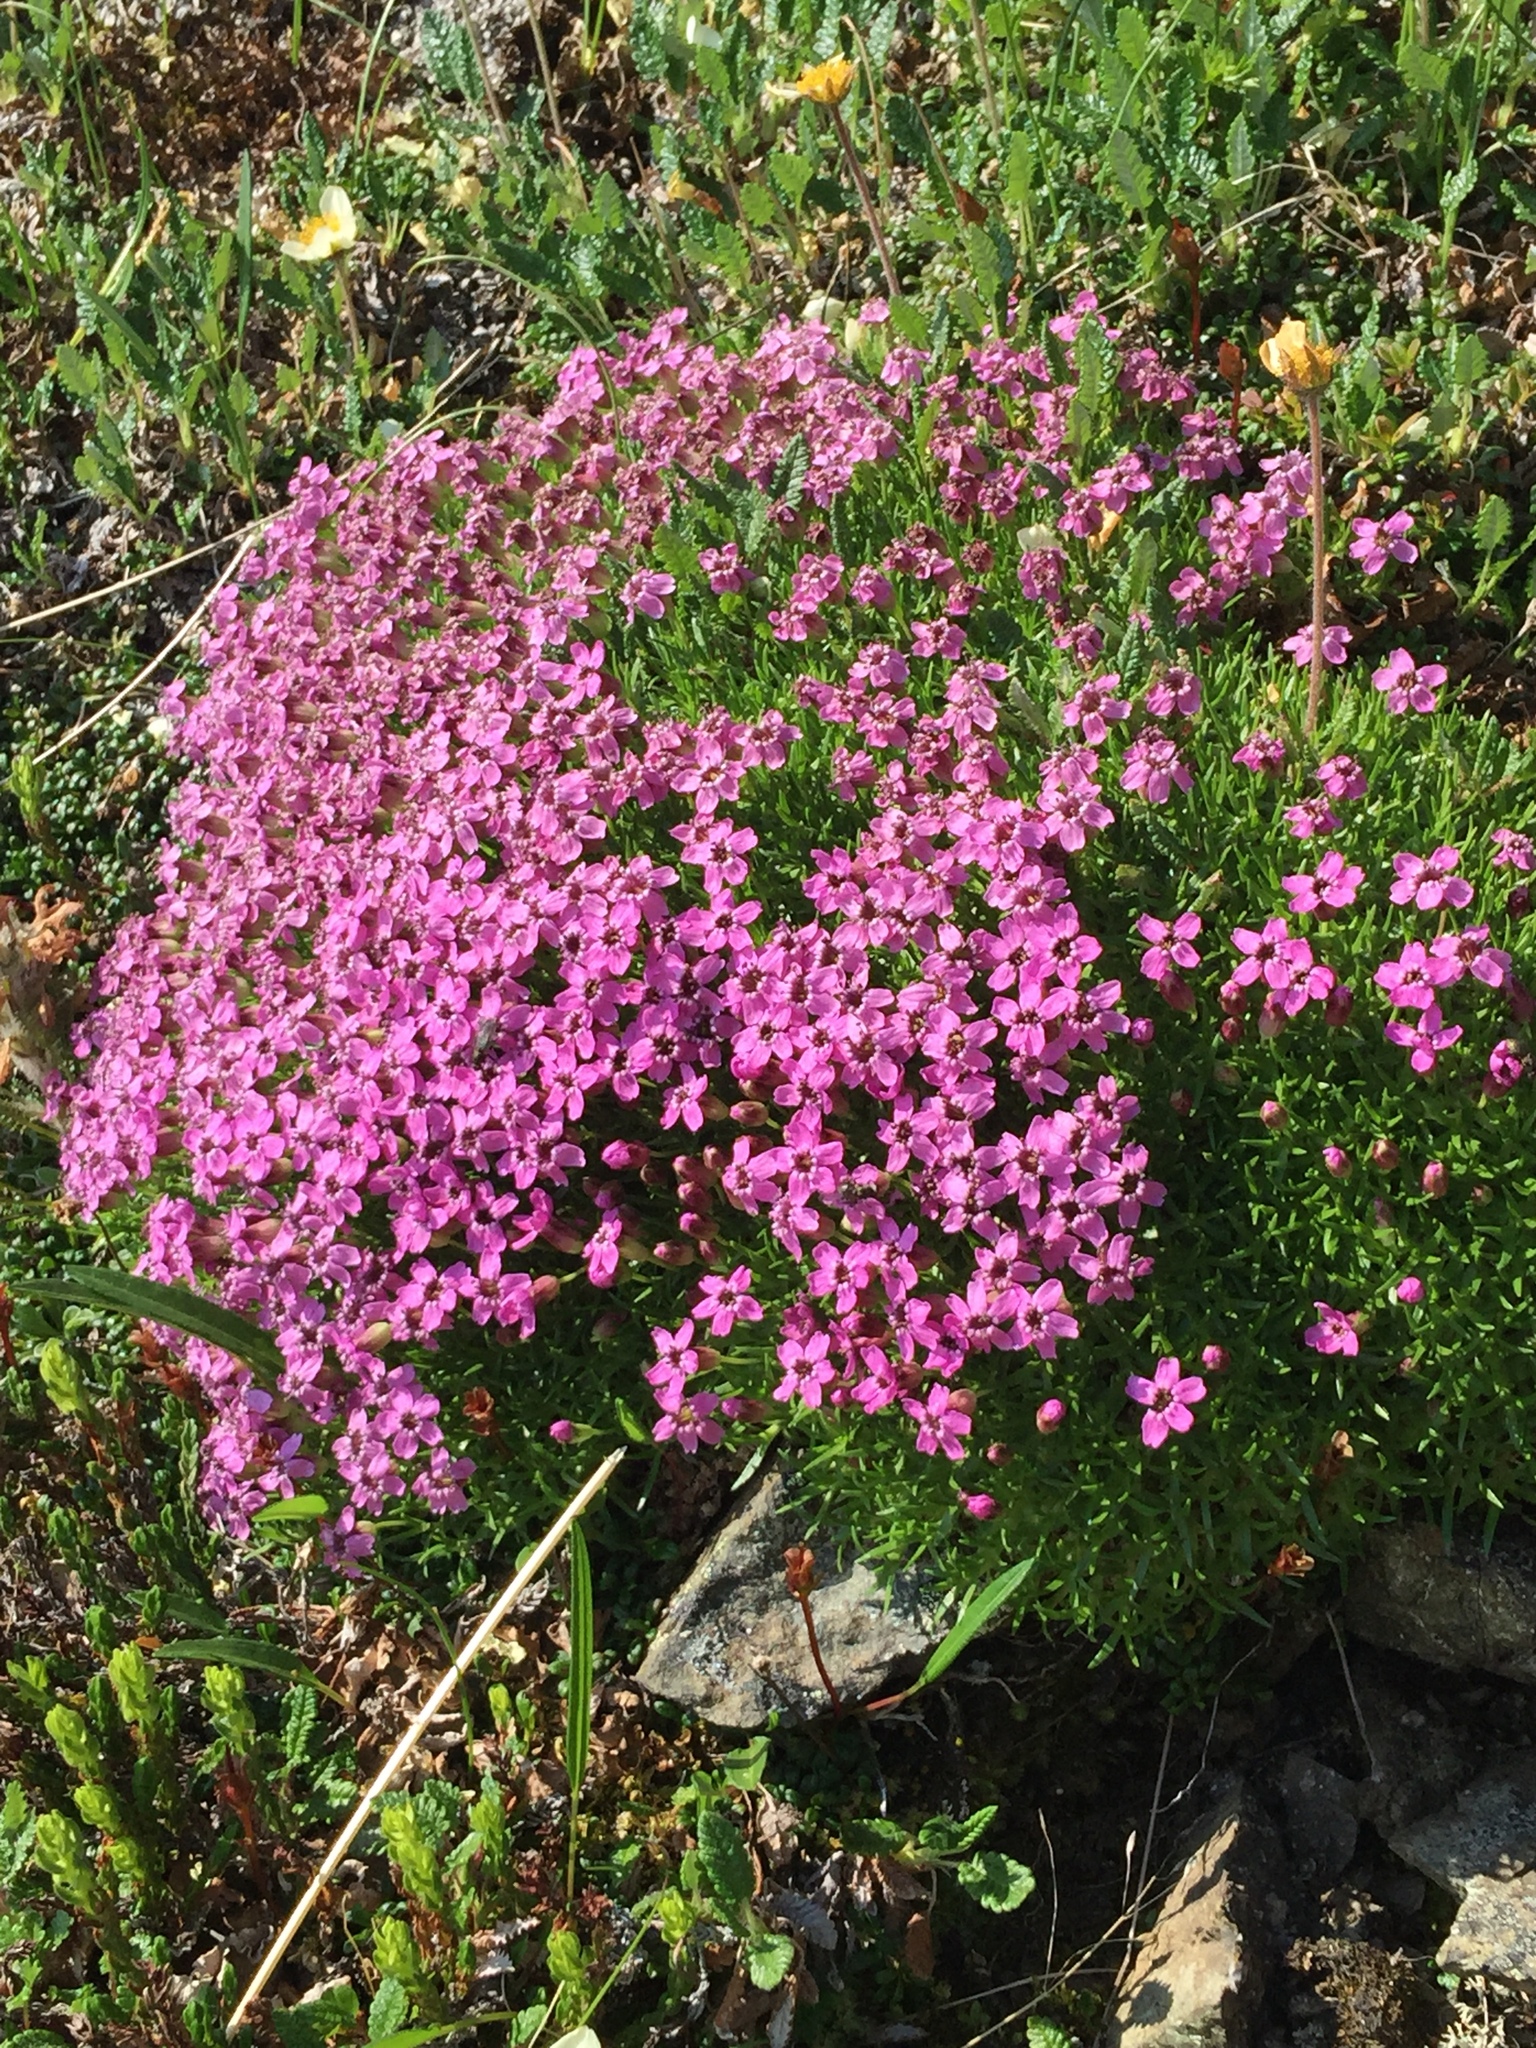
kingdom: Plantae
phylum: Tracheophyta
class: Magnoliopsida
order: Caryophyllales
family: Caryophyllaceae
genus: Silene
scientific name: Silene acaulis
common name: Moss campion
